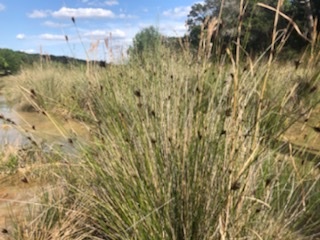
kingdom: Plantae
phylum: Tracheophyta
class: Liliopsida
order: Poales
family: Cyperaceae
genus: Schoenus
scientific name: Schoenus nigricans
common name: Black bog-rush
